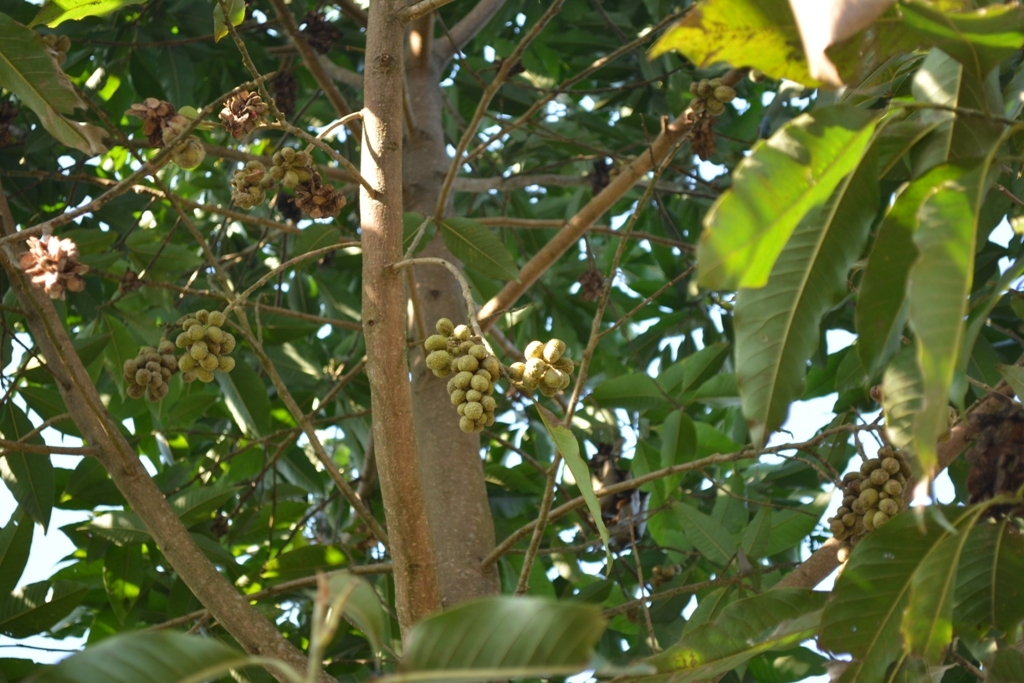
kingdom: Plantae
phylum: Tracheophyta
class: Magnoliopsida
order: Sapindales
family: Meliaceae
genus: Guarea
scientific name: Guarea guidonia
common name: American muskwood
